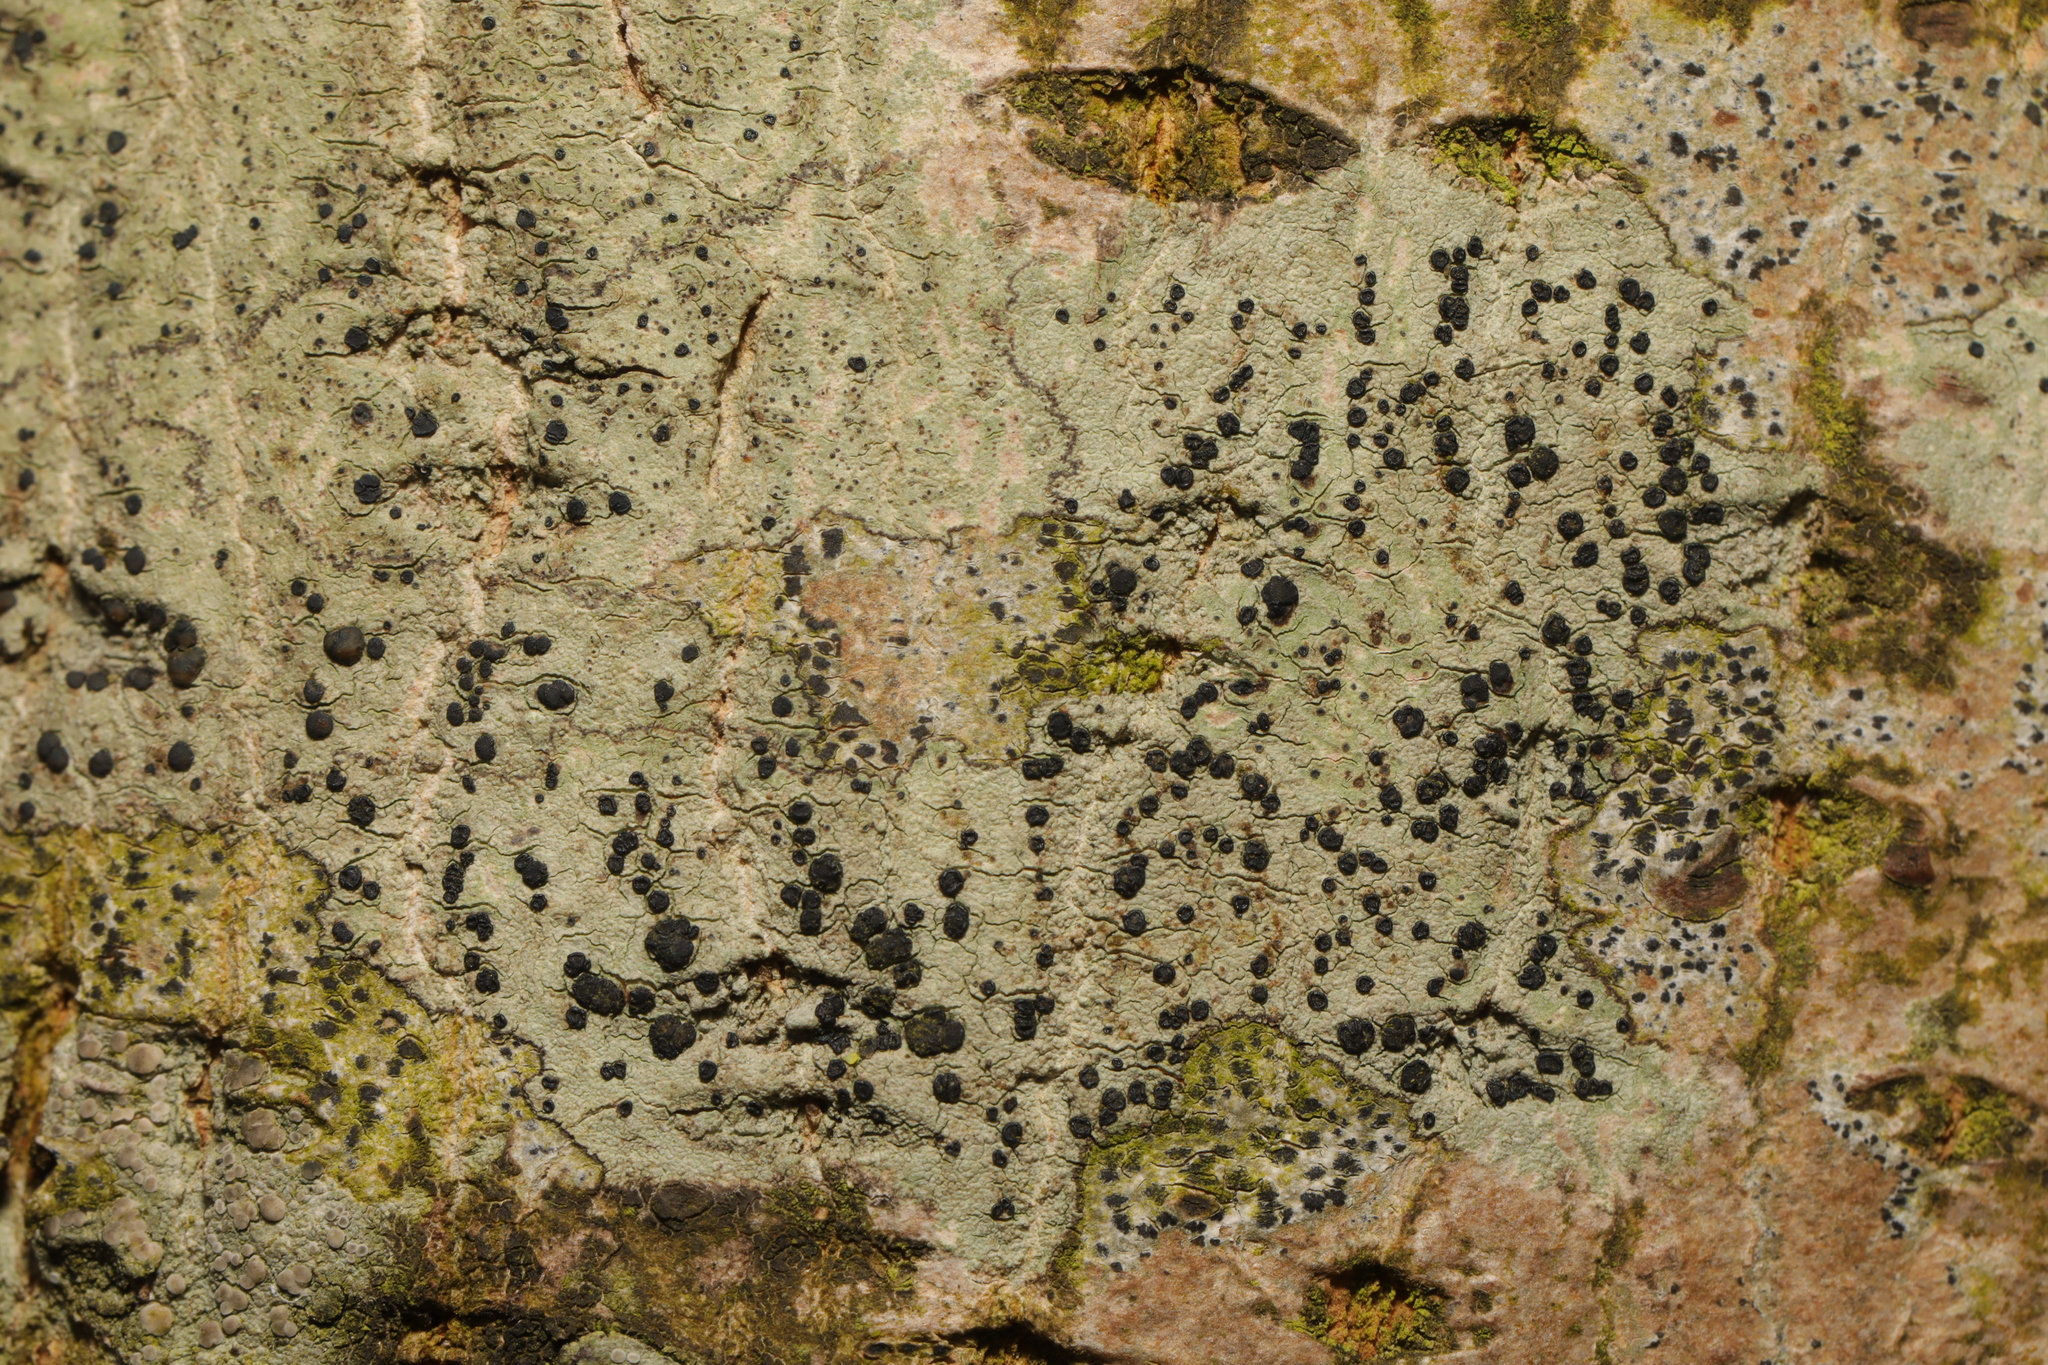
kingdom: Fungi
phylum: Ascomycota
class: Lecanoromycetes
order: Lecanorales
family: Lecanoraceae
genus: Lecidella
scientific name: Lecidella elaeochroma
